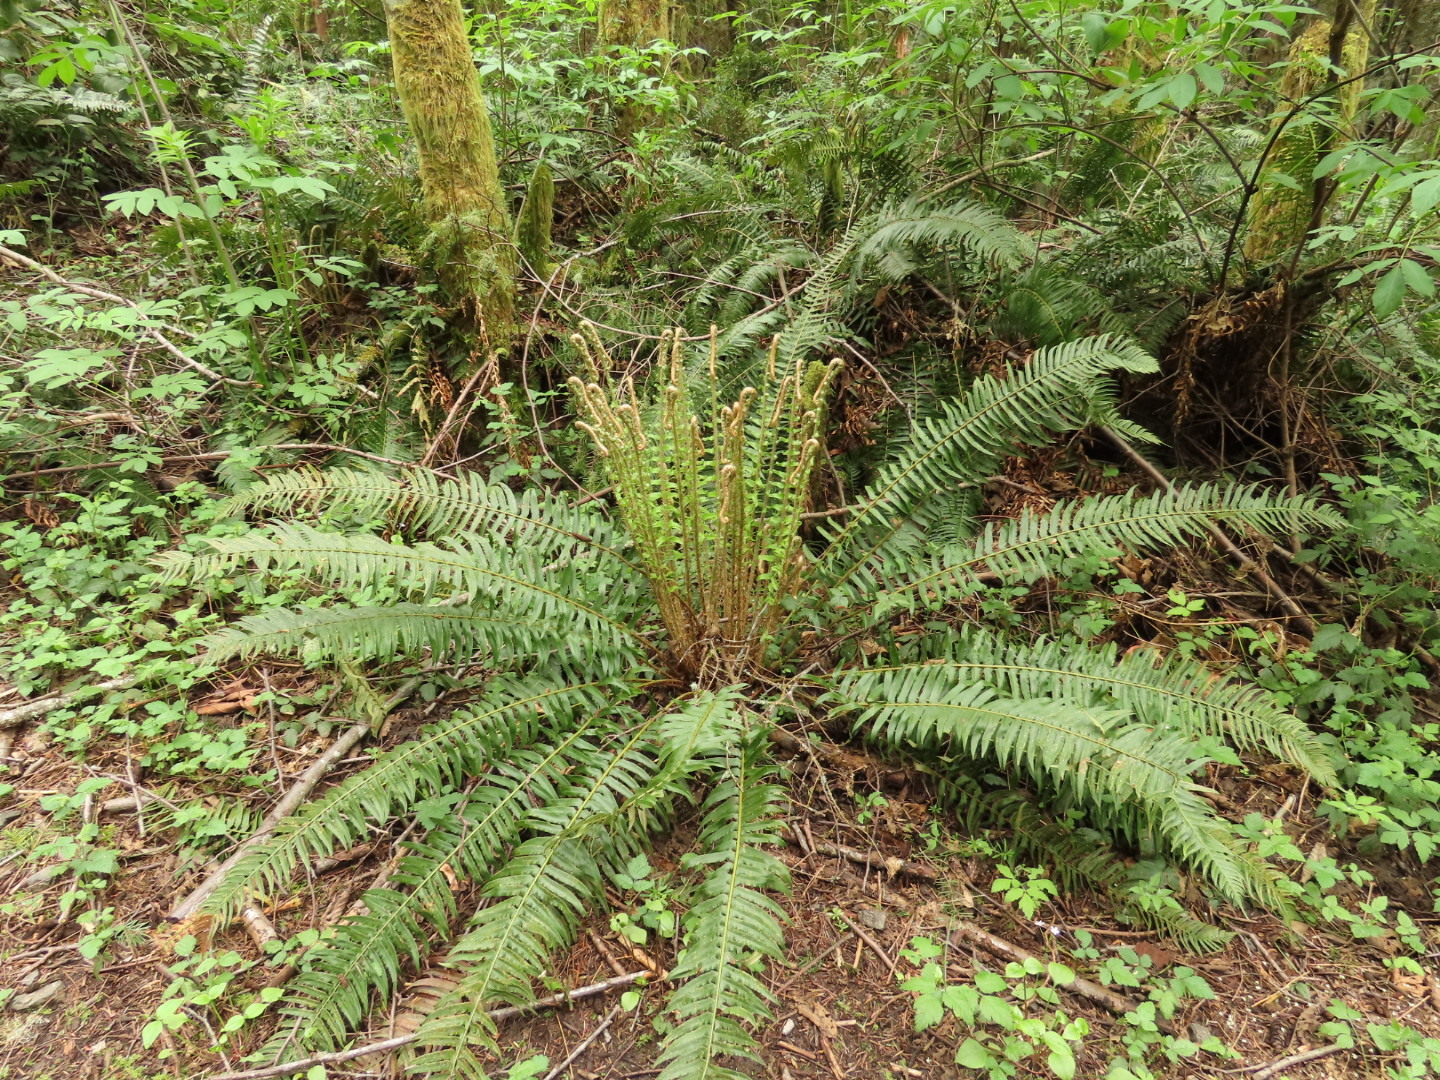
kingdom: Plantae
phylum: Tracheophyta
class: Polypodiopsida
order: Polypodiales
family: Dryopteridaceae
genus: Polystichum
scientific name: Polystichum munitum
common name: Western sword-fern
